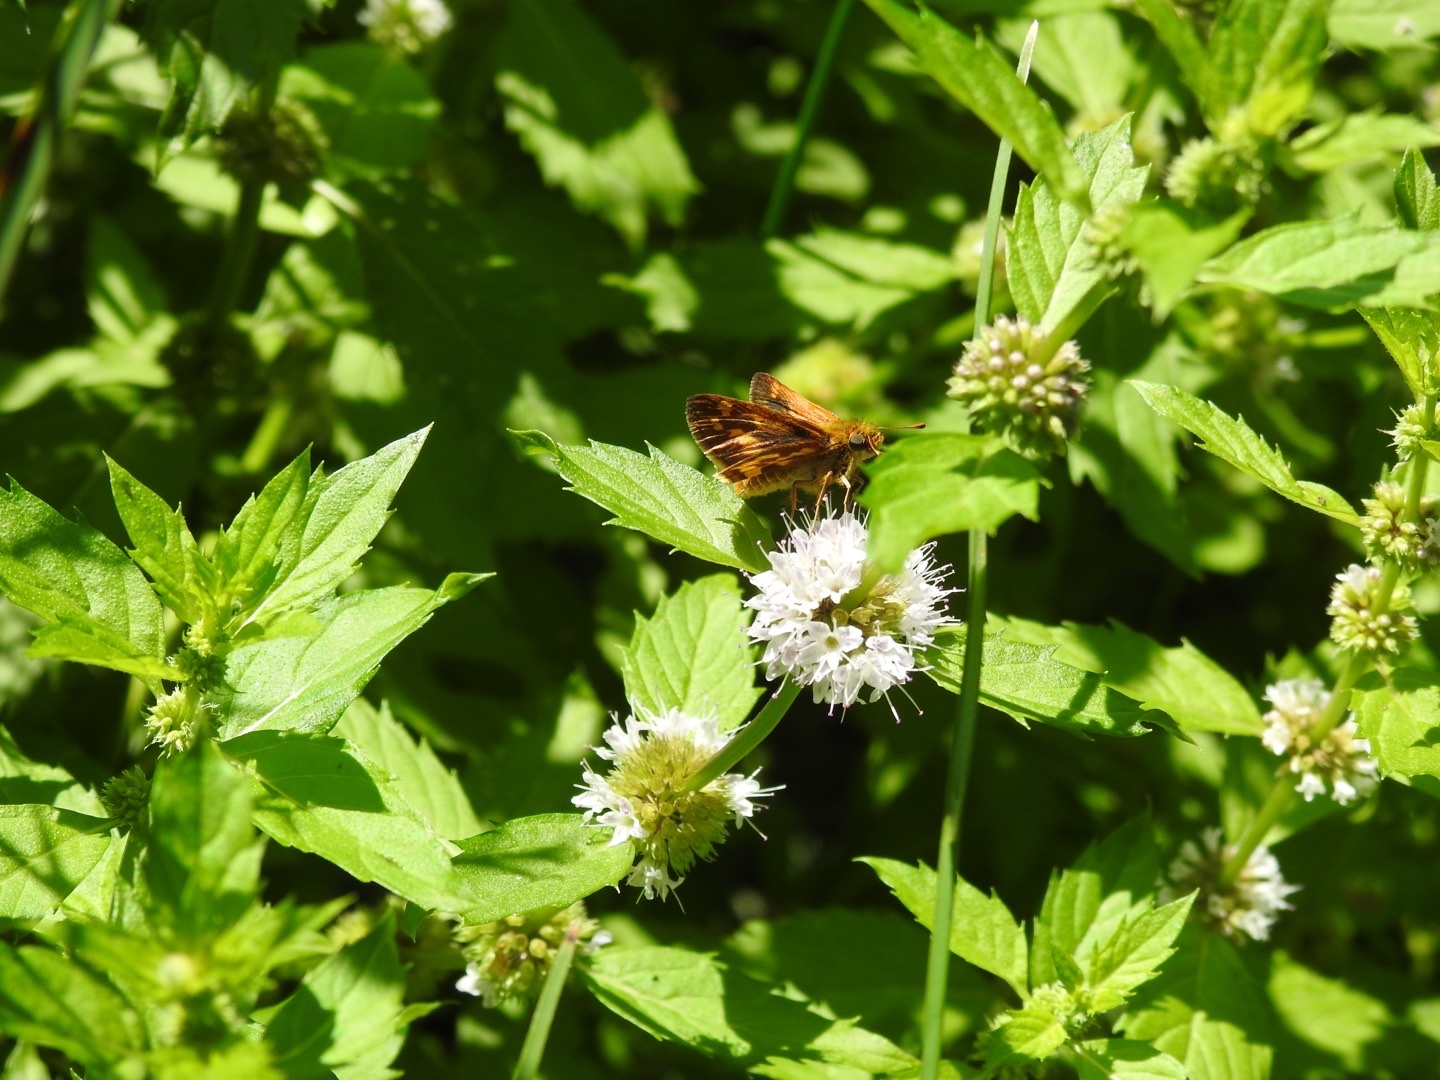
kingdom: Animalia
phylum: Arthropoda
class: Insecta
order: Lepidoptera
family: Hesperiidae
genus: Polites
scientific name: Polites coras
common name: Peck's skipper
